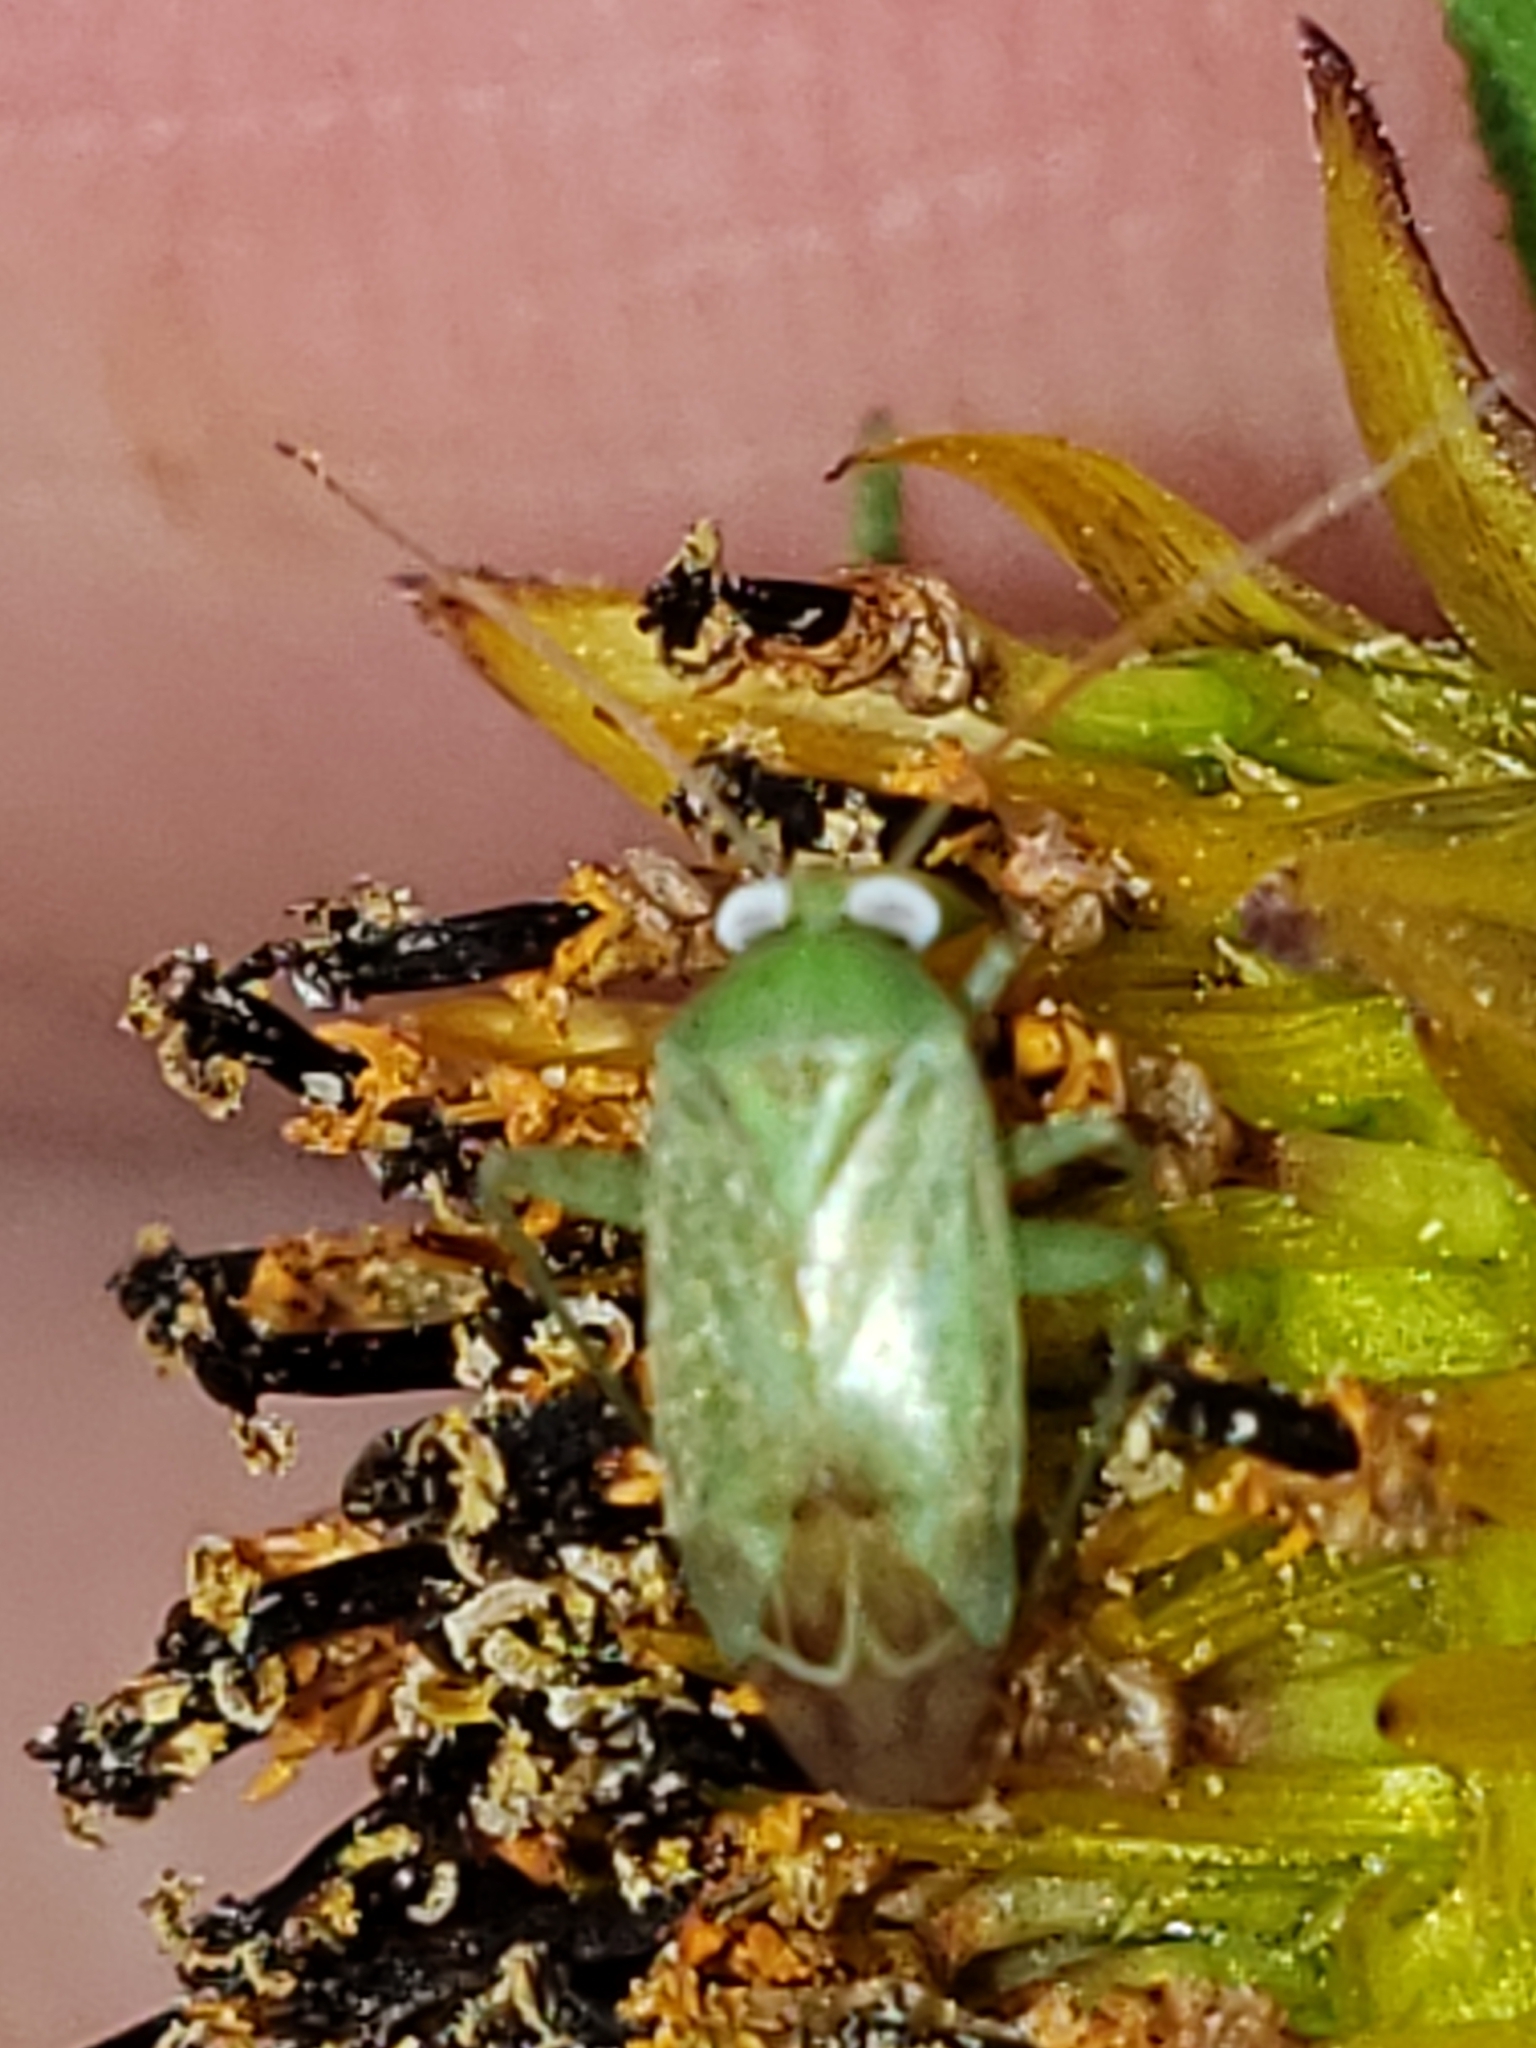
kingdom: Animalia
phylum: Arthropoda
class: Insecta
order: Hemiptera
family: Miridae
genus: Taylorilygus
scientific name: Taylorilygus apicalis
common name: Plant bug
